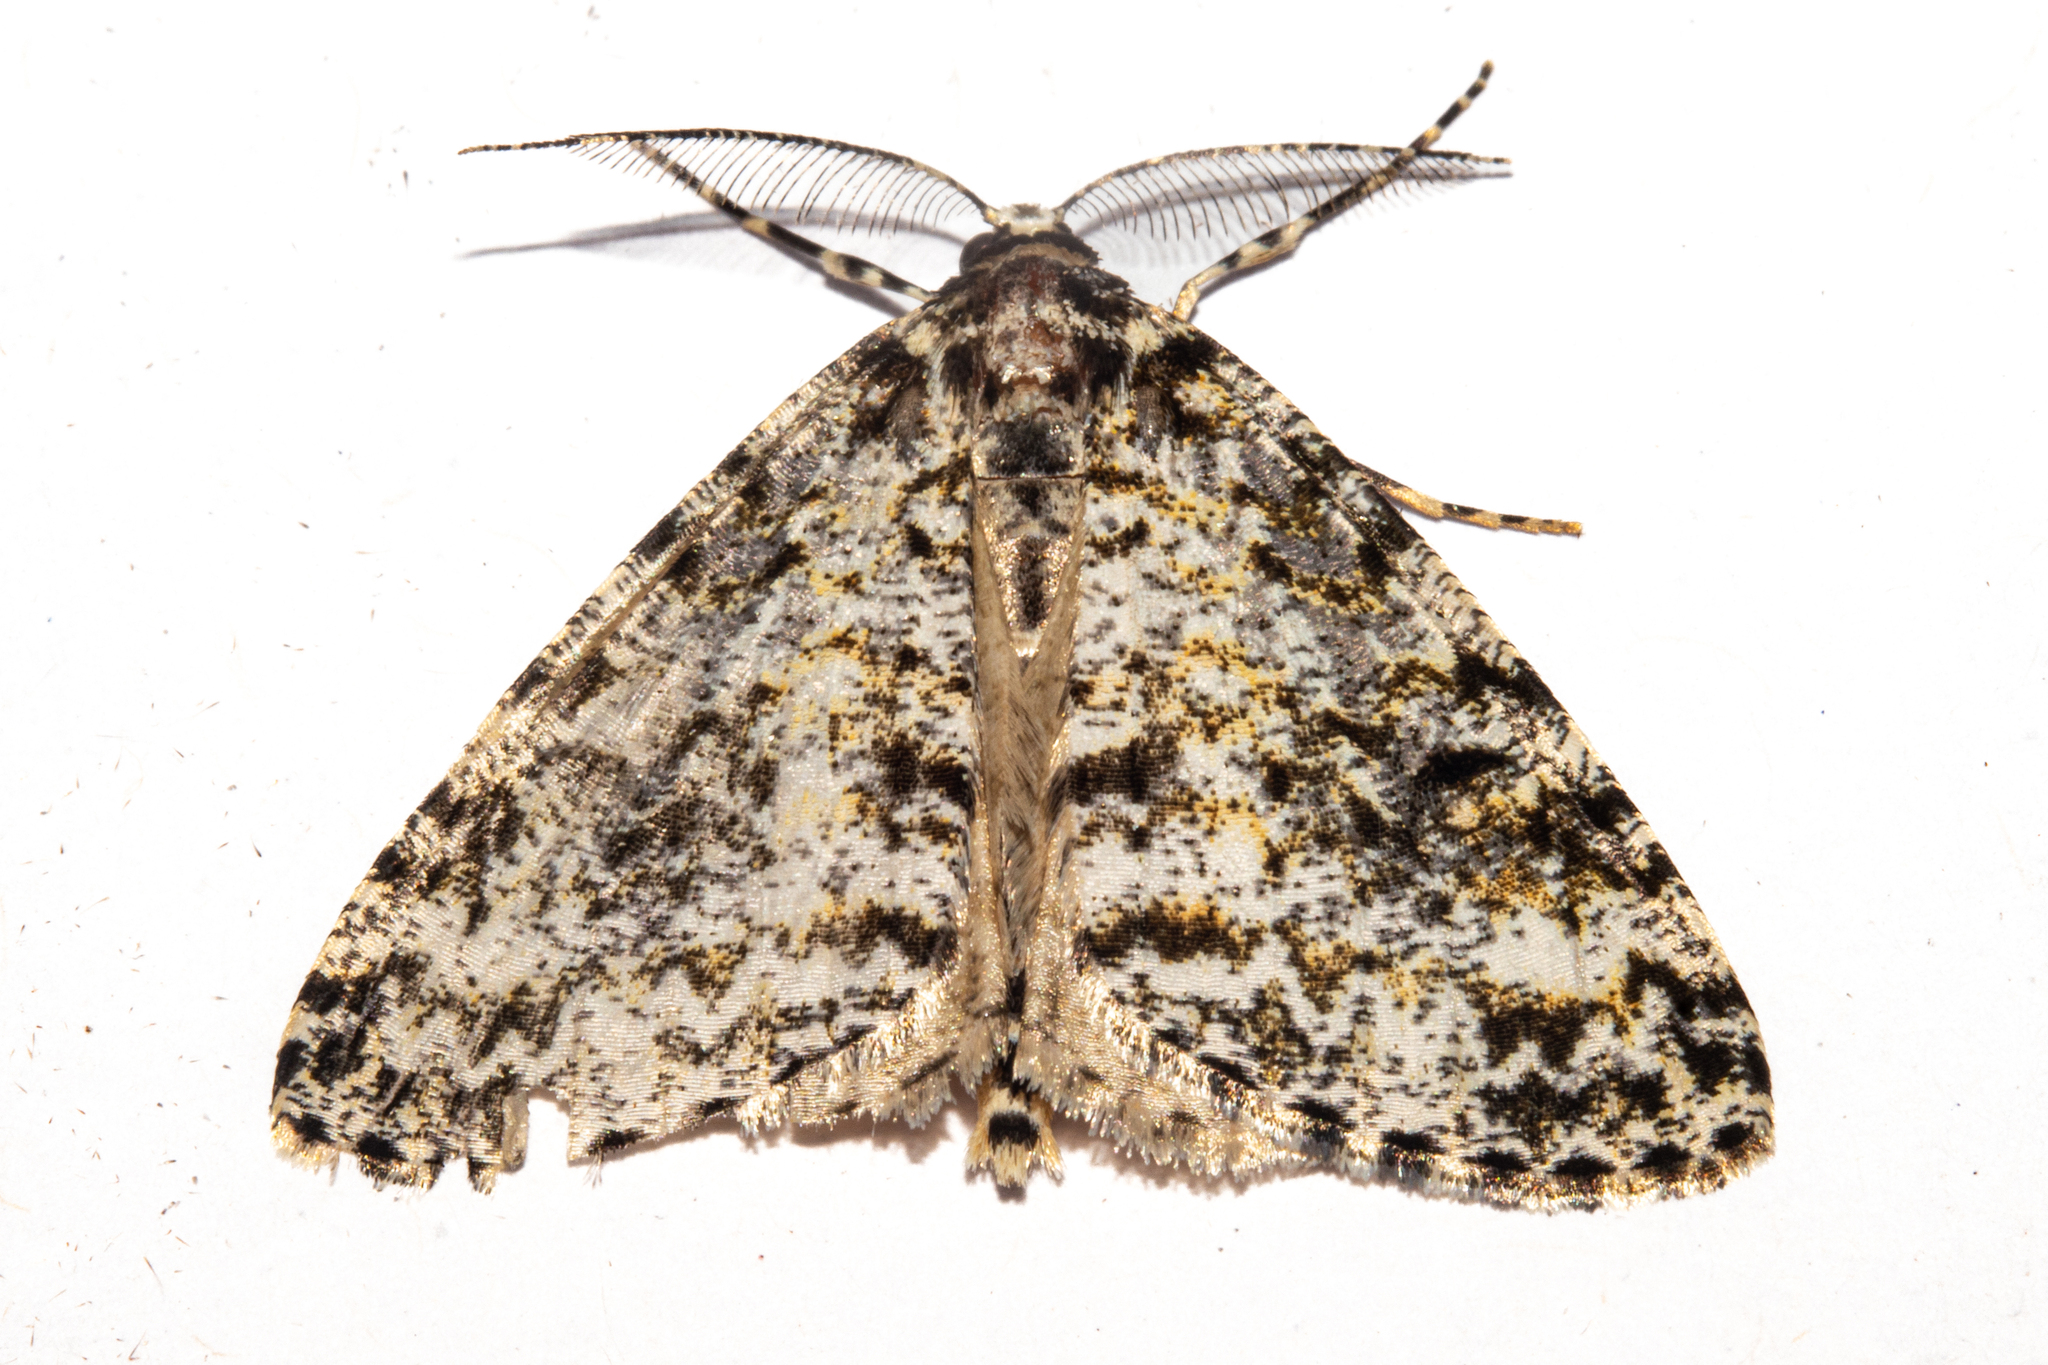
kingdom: Animalia
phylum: Arthropoda
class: Insecta
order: Lepidoptera
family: Geometridae
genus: Pseudocoremia
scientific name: Pseudocoremia monacha
